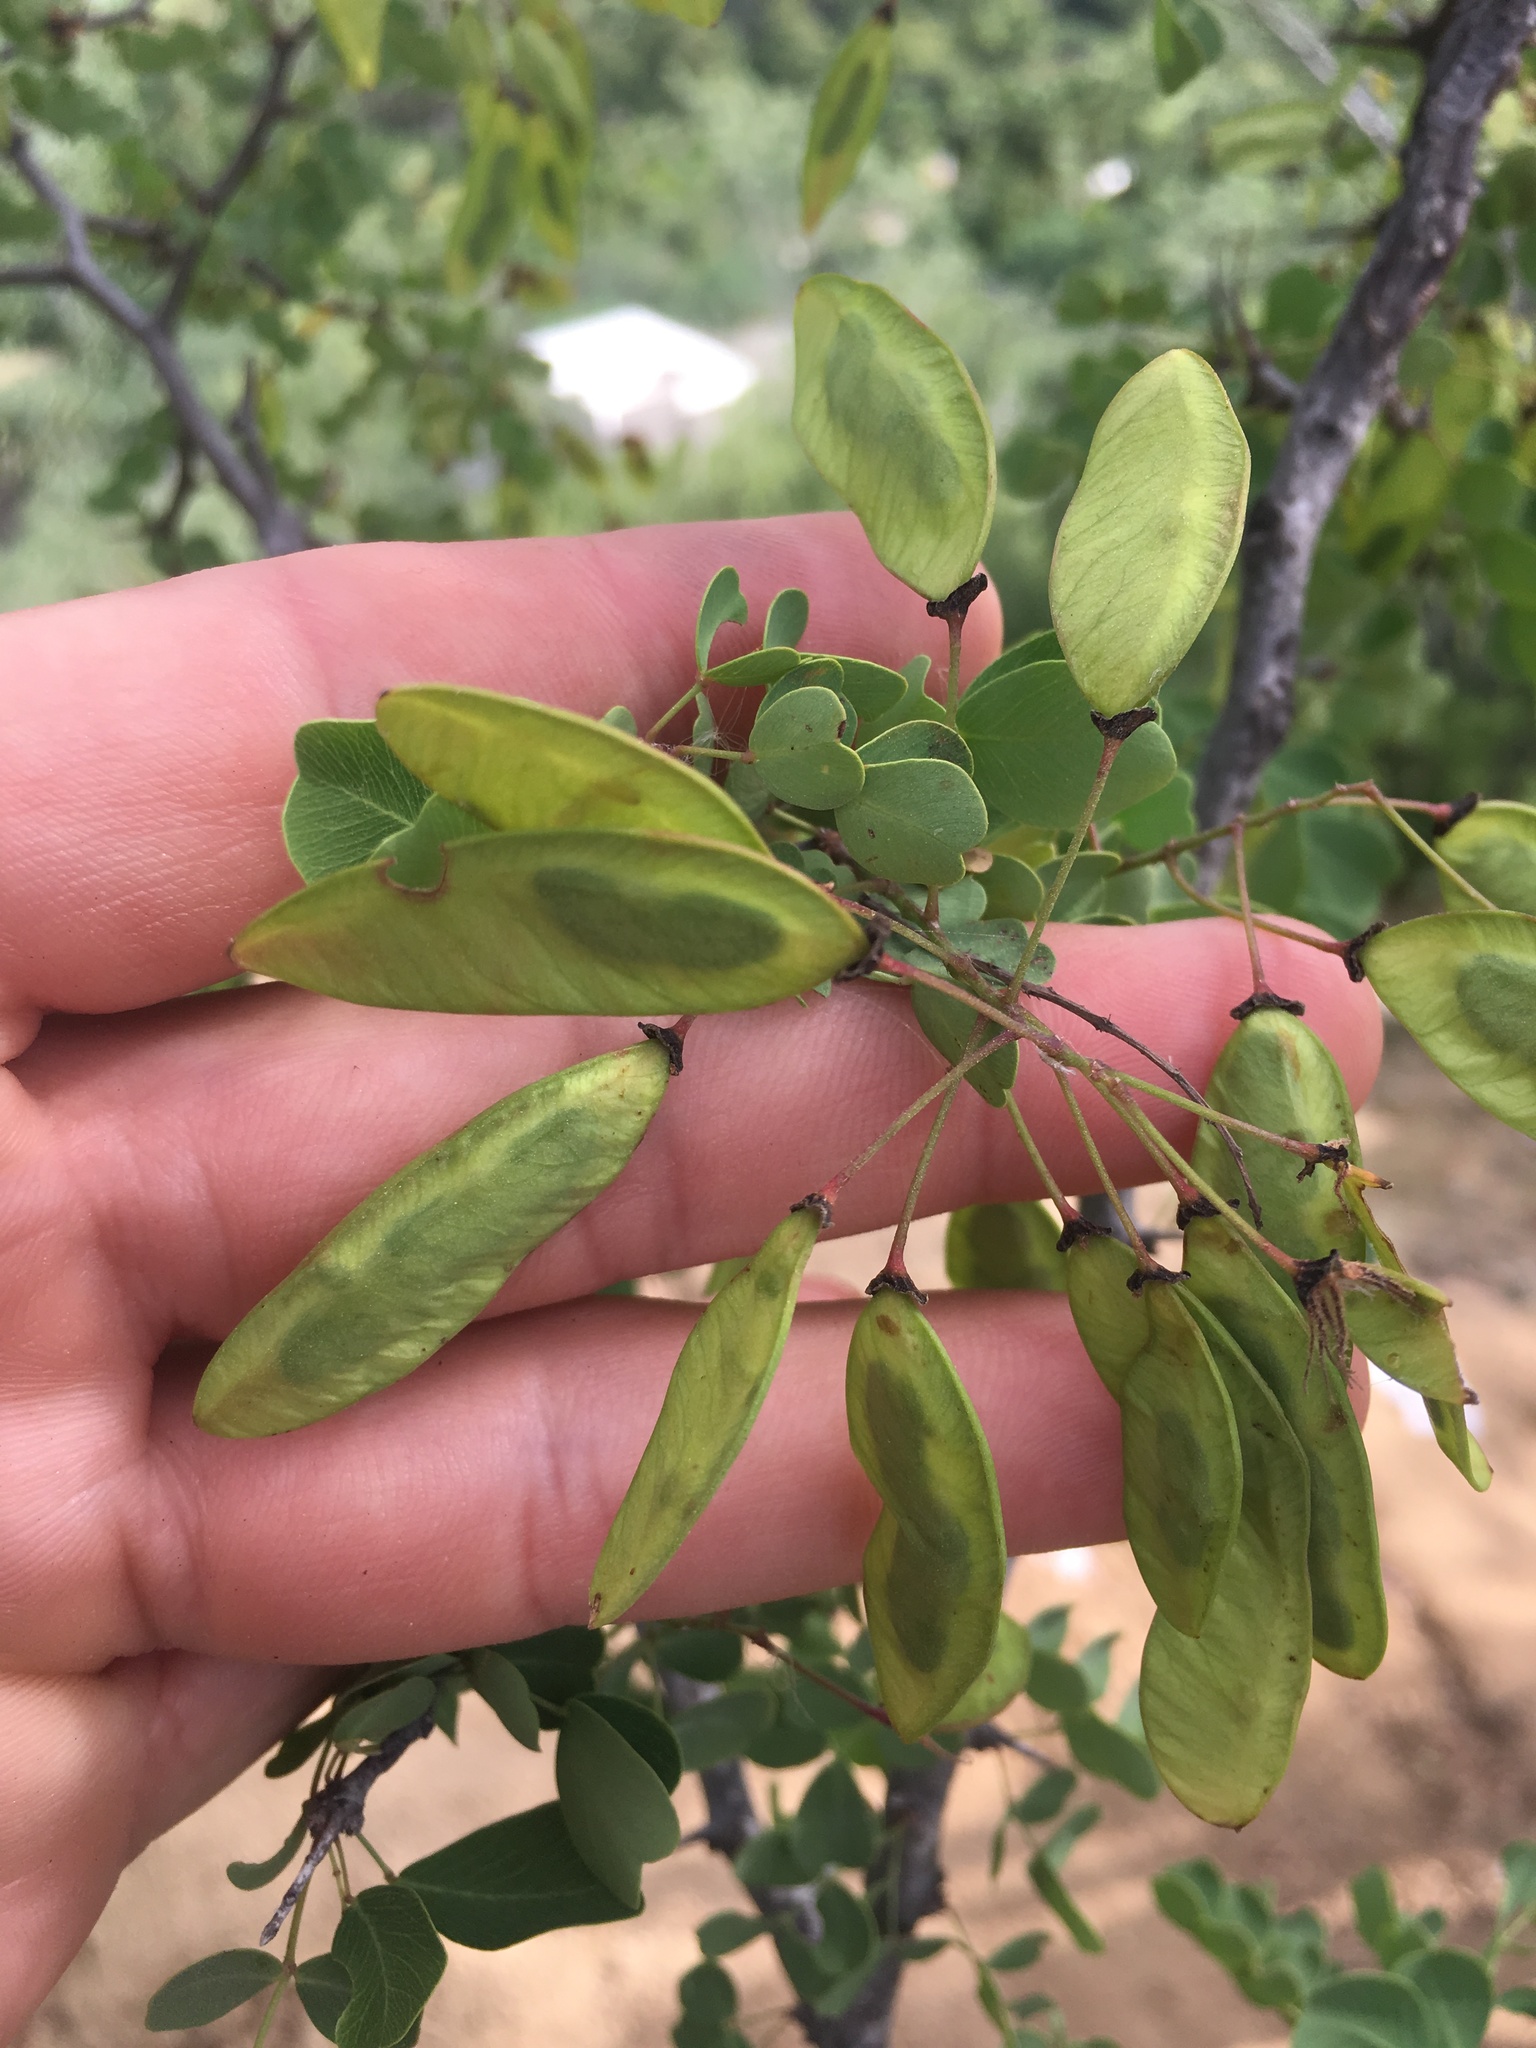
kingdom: Plantae
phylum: Tracheophyta
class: Magnoliopsida
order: Fabales
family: Fabaceae
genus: Haematoxylum
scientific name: Haematoxylum brasiletto
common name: Peachwood
